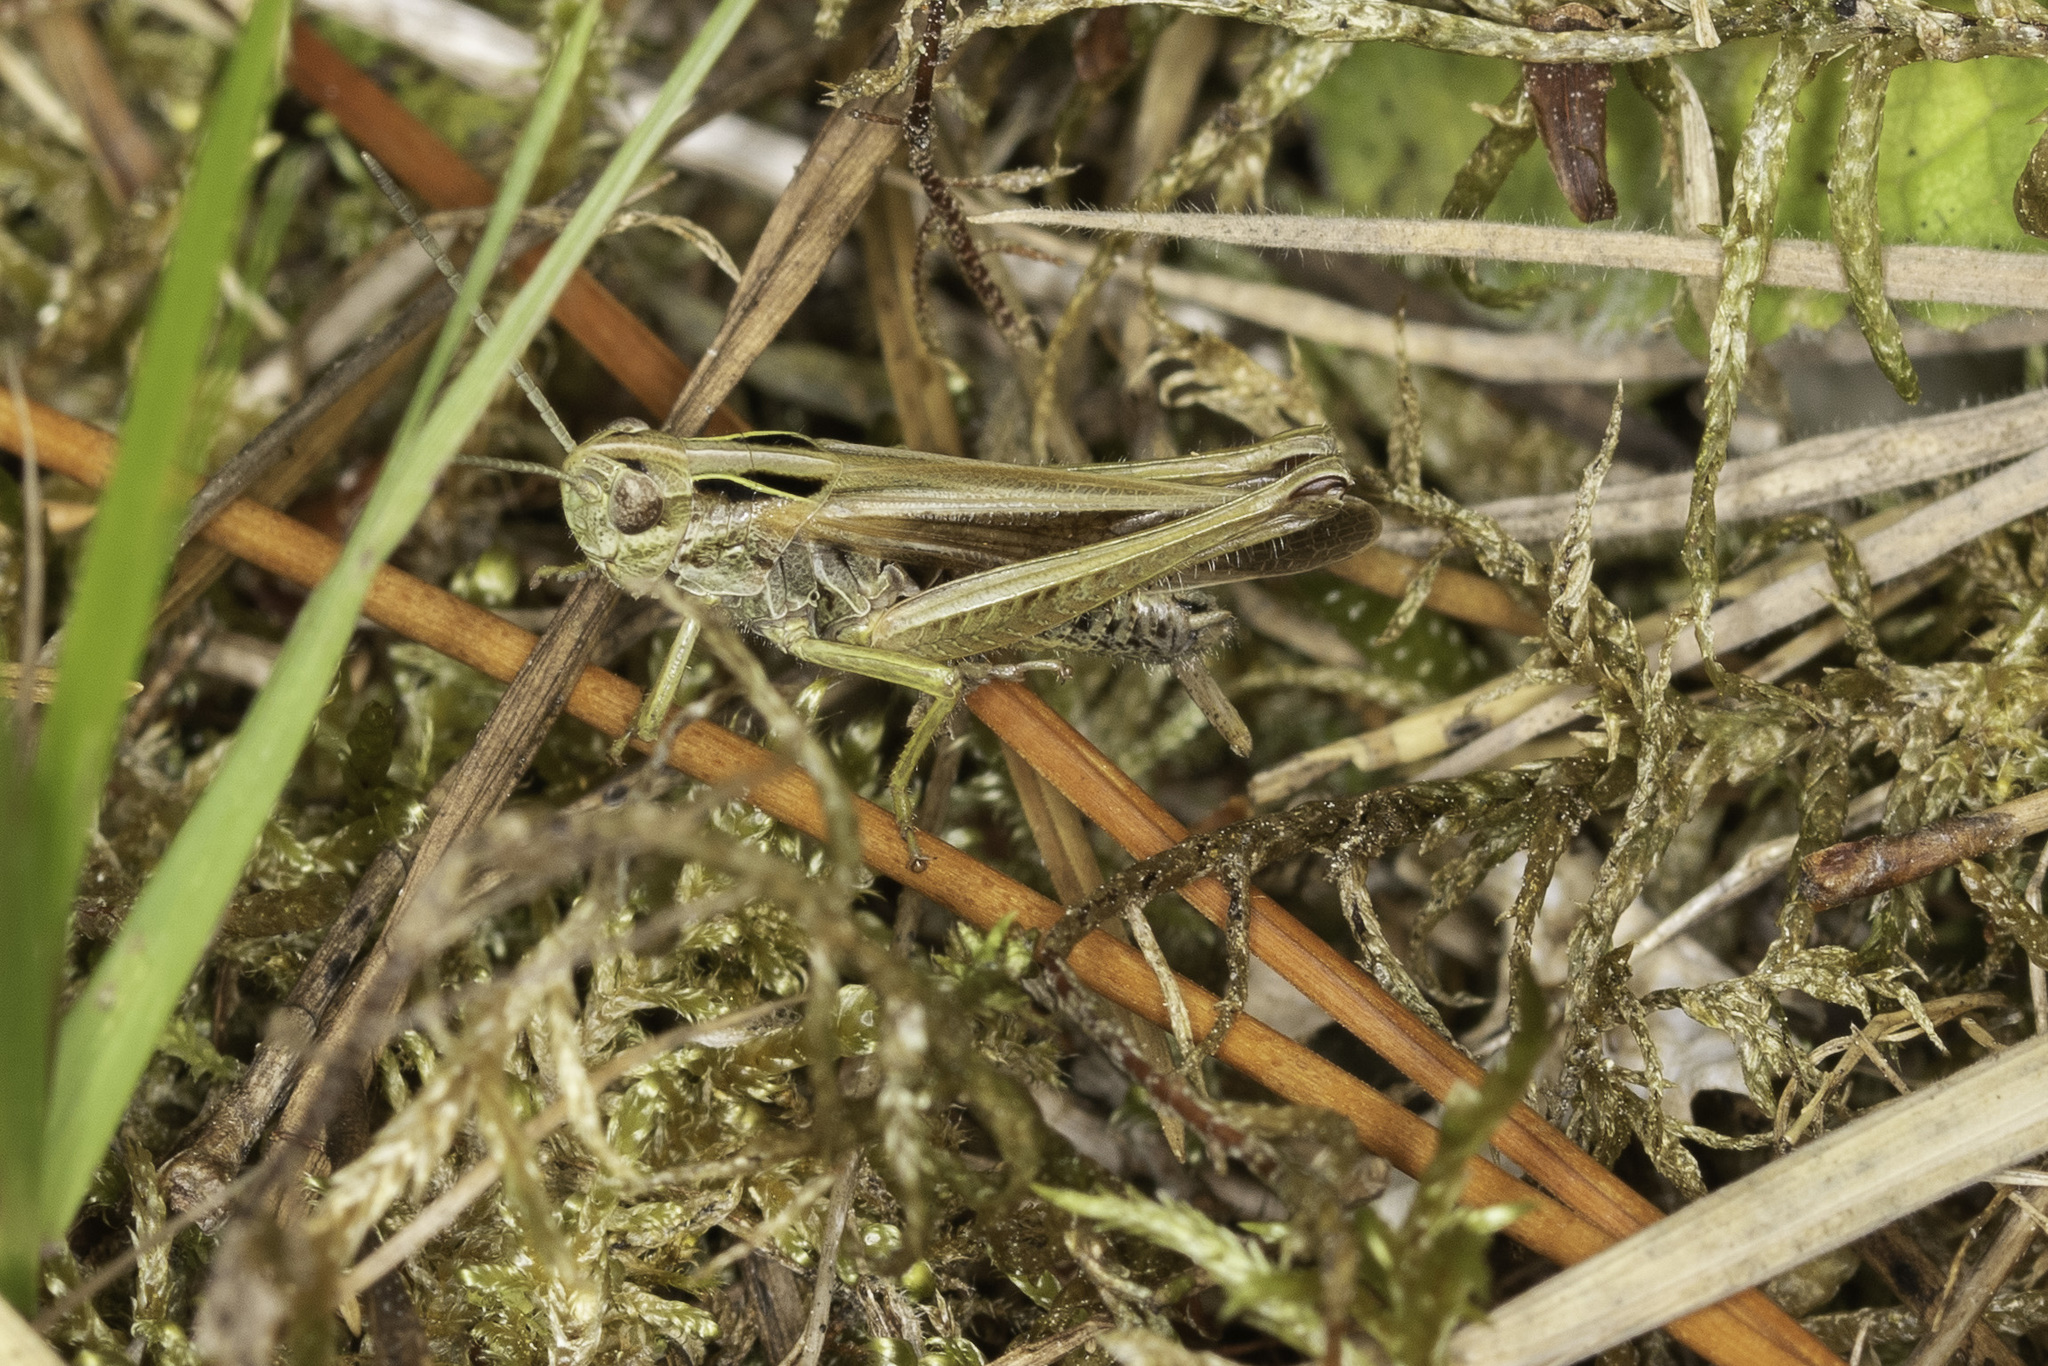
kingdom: Animalia
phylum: Arthropoda
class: Insecta
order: Orthoptera
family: Acrididae
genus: Omocestus
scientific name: Omocestus viridulus
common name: Common green grasshopper
